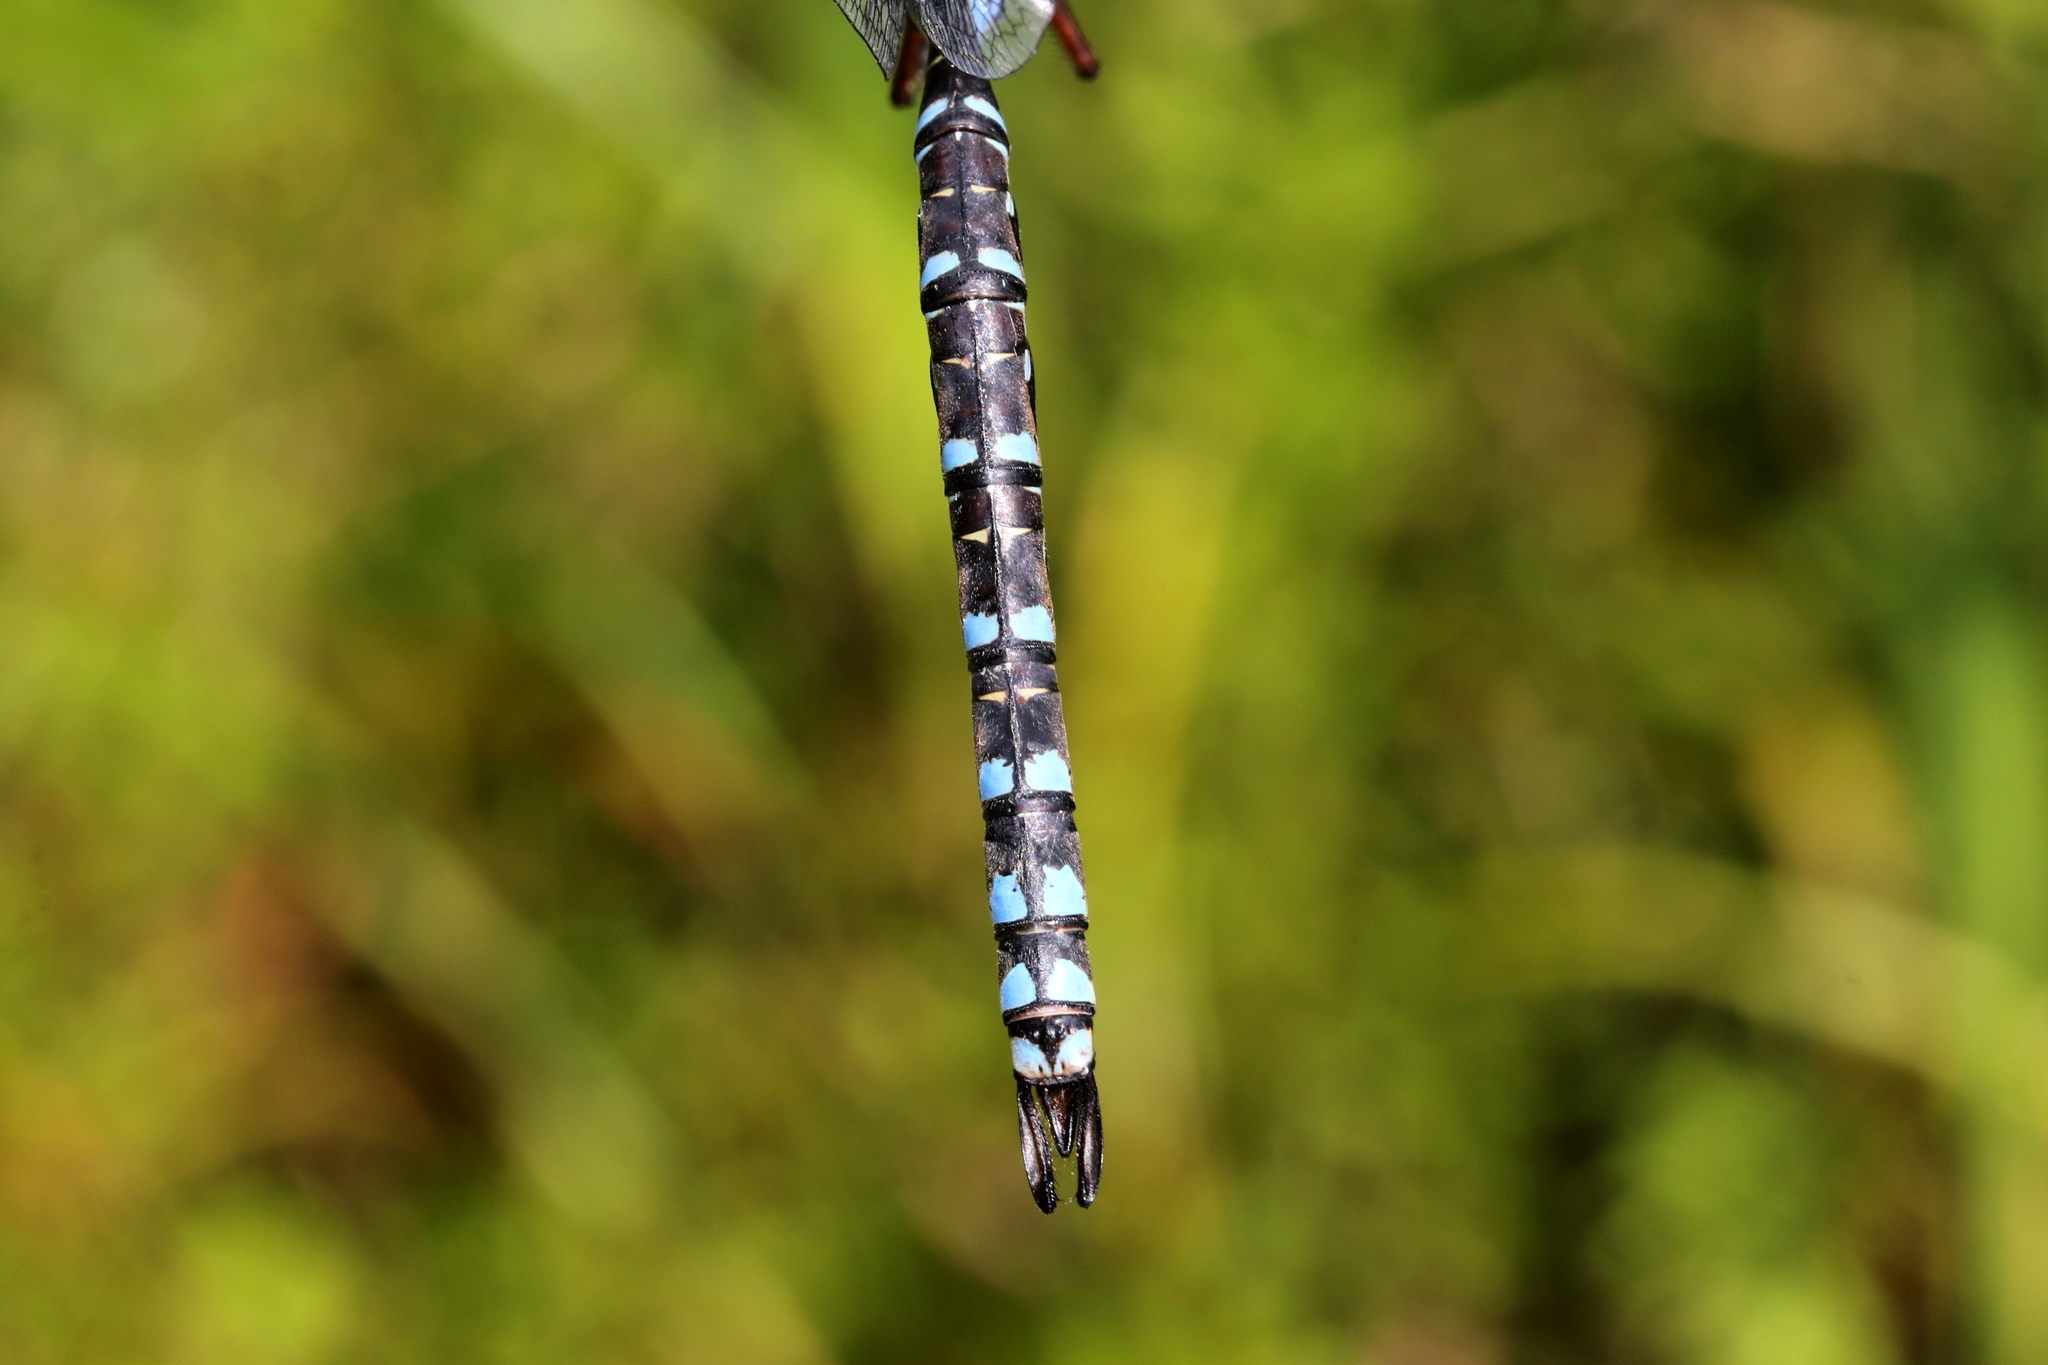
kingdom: Animalia
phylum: Arthropoda
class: Insecta
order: Odonata
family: Aeshnidae
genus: Aeshna
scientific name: Aeshna eremita
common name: Lake darner
